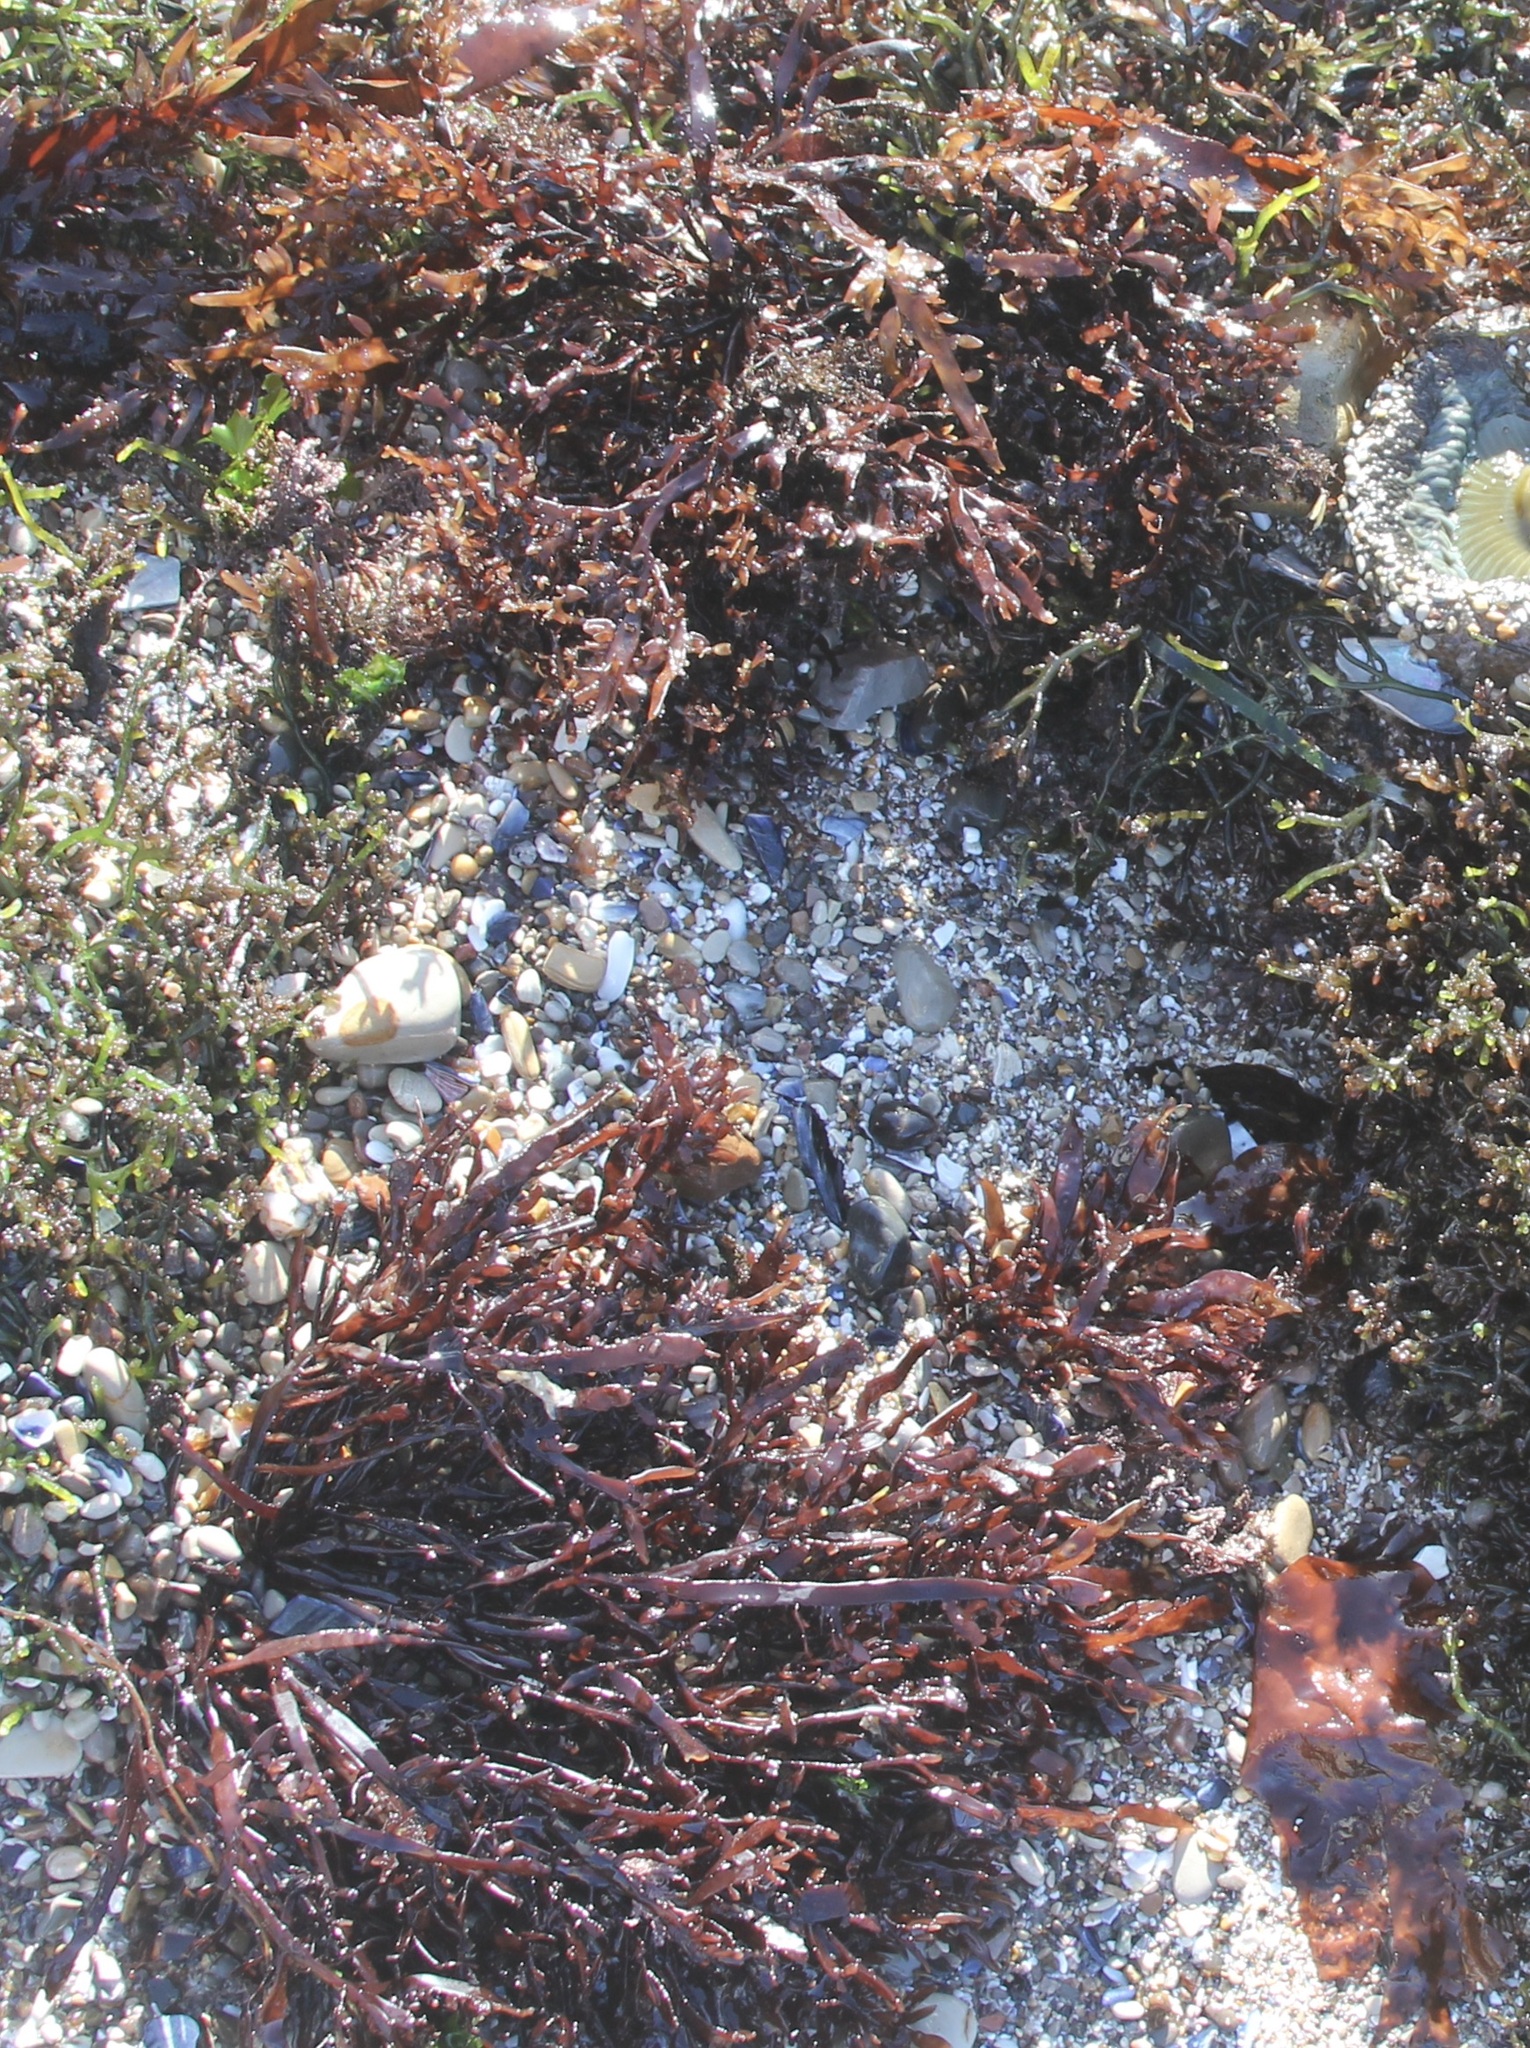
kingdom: Plantae
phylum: Rhodophyta
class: Florideophyceae
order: Halymeniales
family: Halymeniaceae
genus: Grateloupia
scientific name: Grateloupia Prionitis lanceolata
